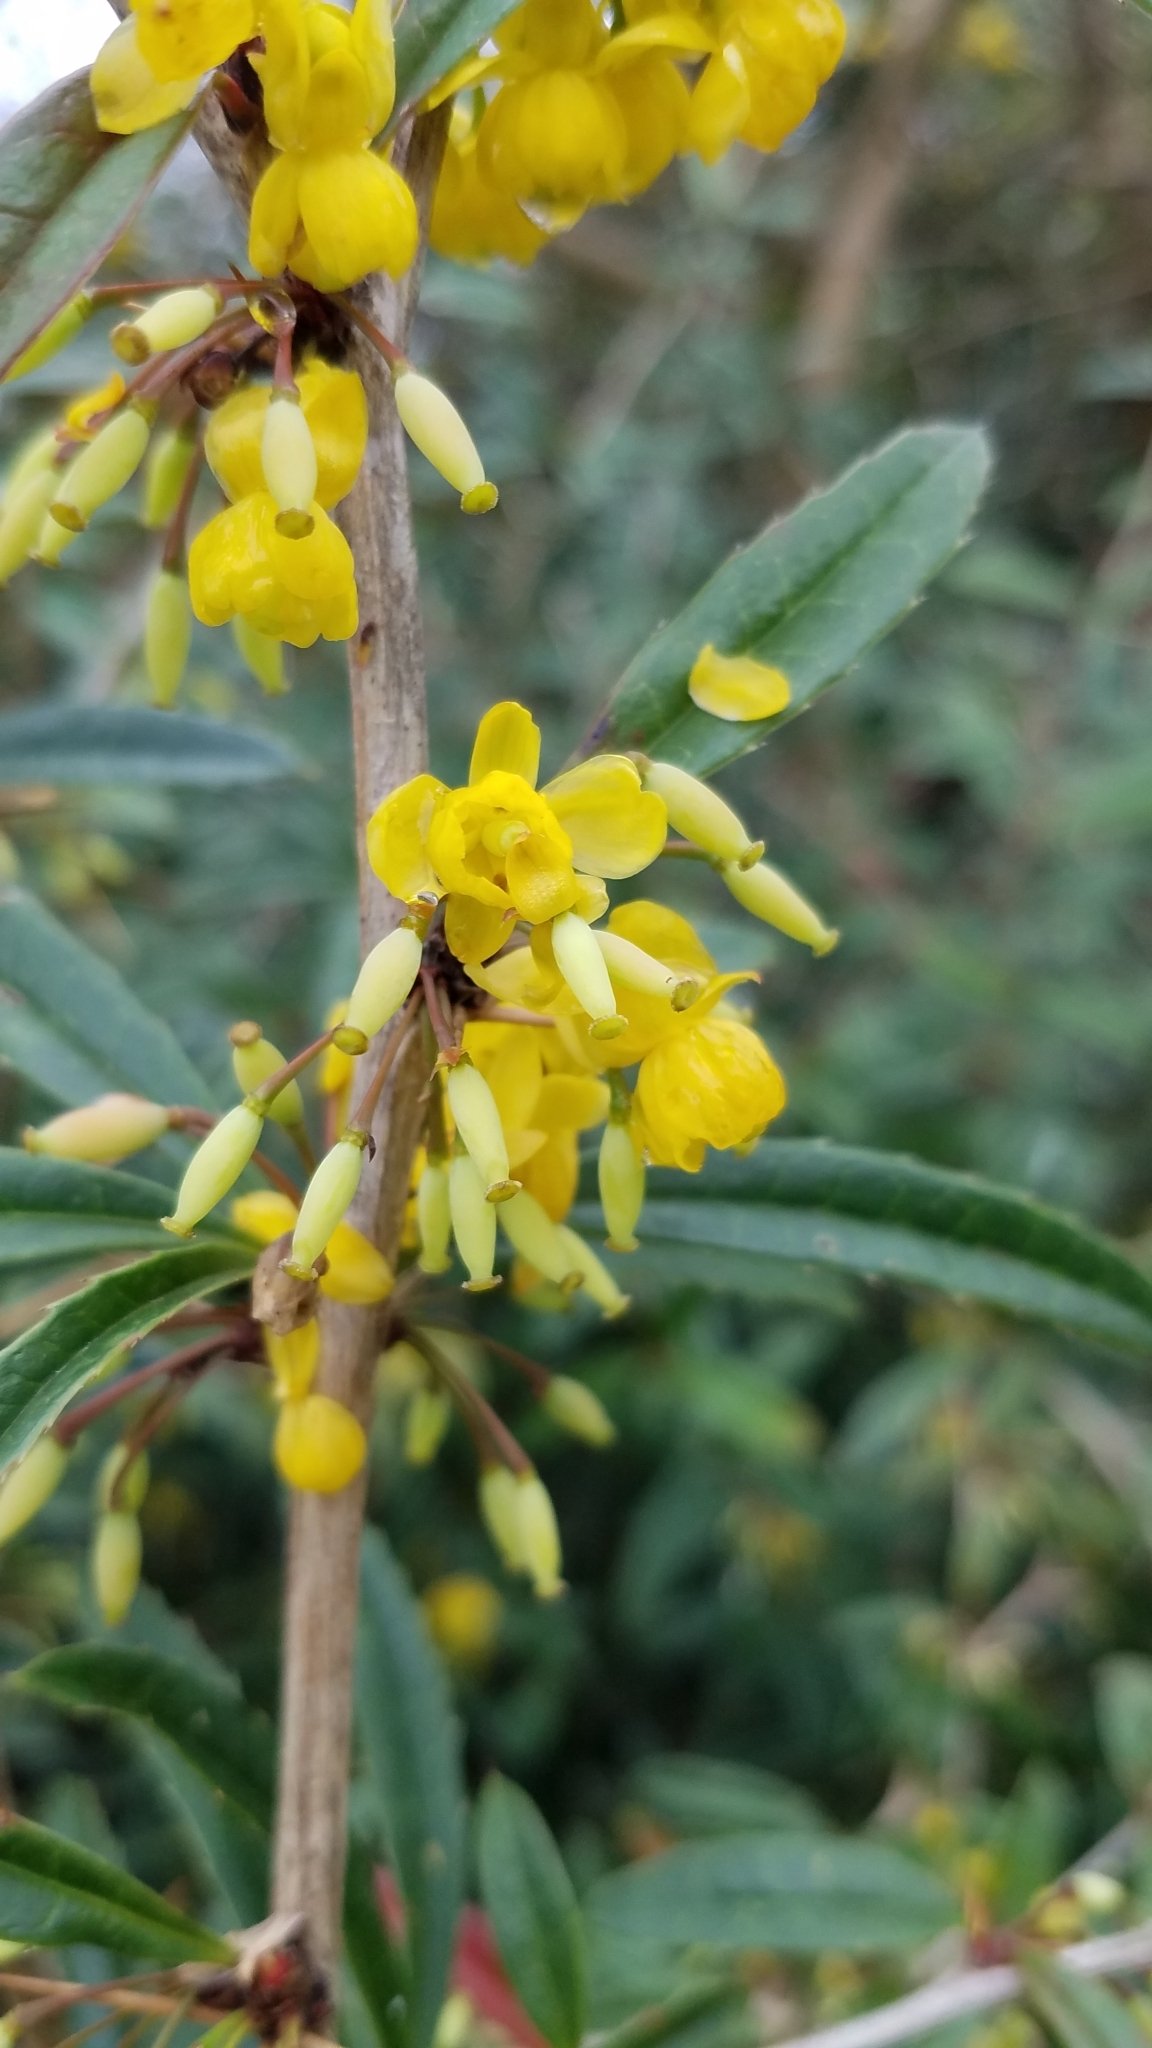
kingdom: Plantae
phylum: Tracheophyta
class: Magnoliopsida
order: Ranunculales
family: Berberidaceae
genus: Berberis
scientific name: Berberis julianae
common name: Wintergreen barberry
